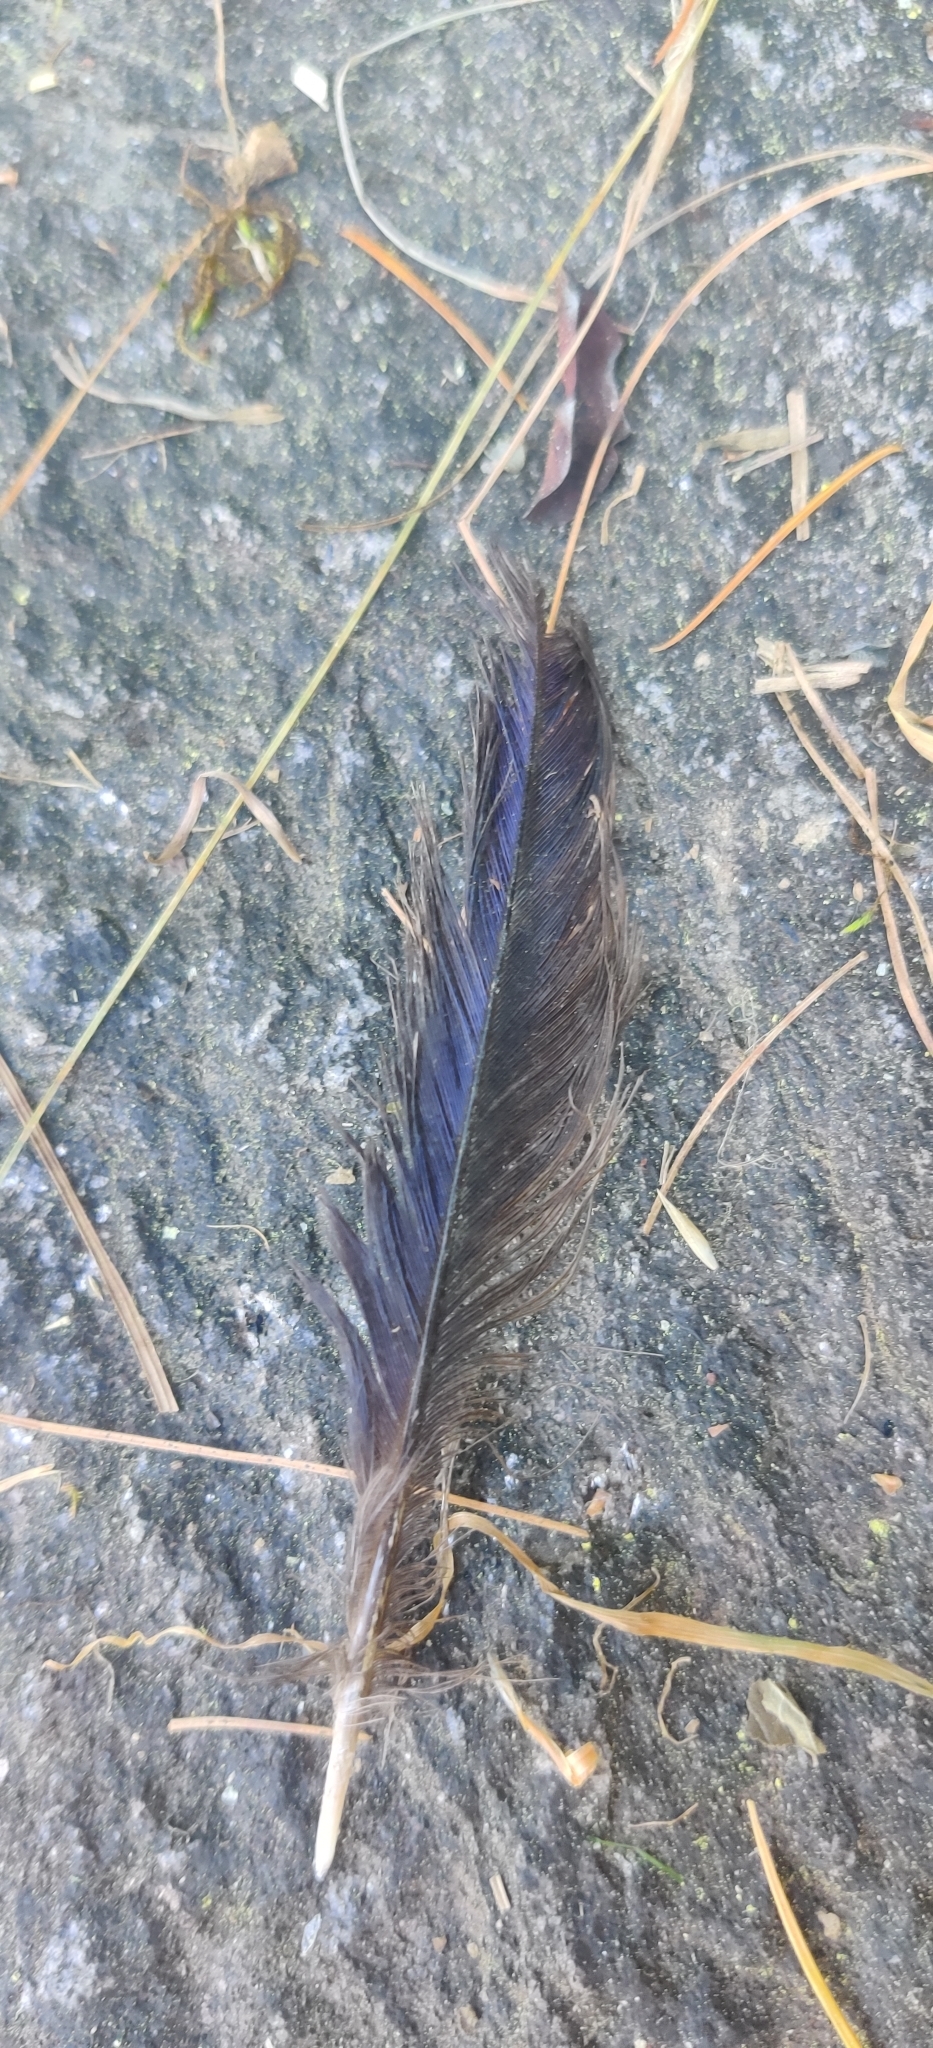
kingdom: Animalia
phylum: Chordata
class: Aves
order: Passeriformes
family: Muscicapidae
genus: Myophonus
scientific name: Myophonus caeruleus
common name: Blue whistling-thrush
